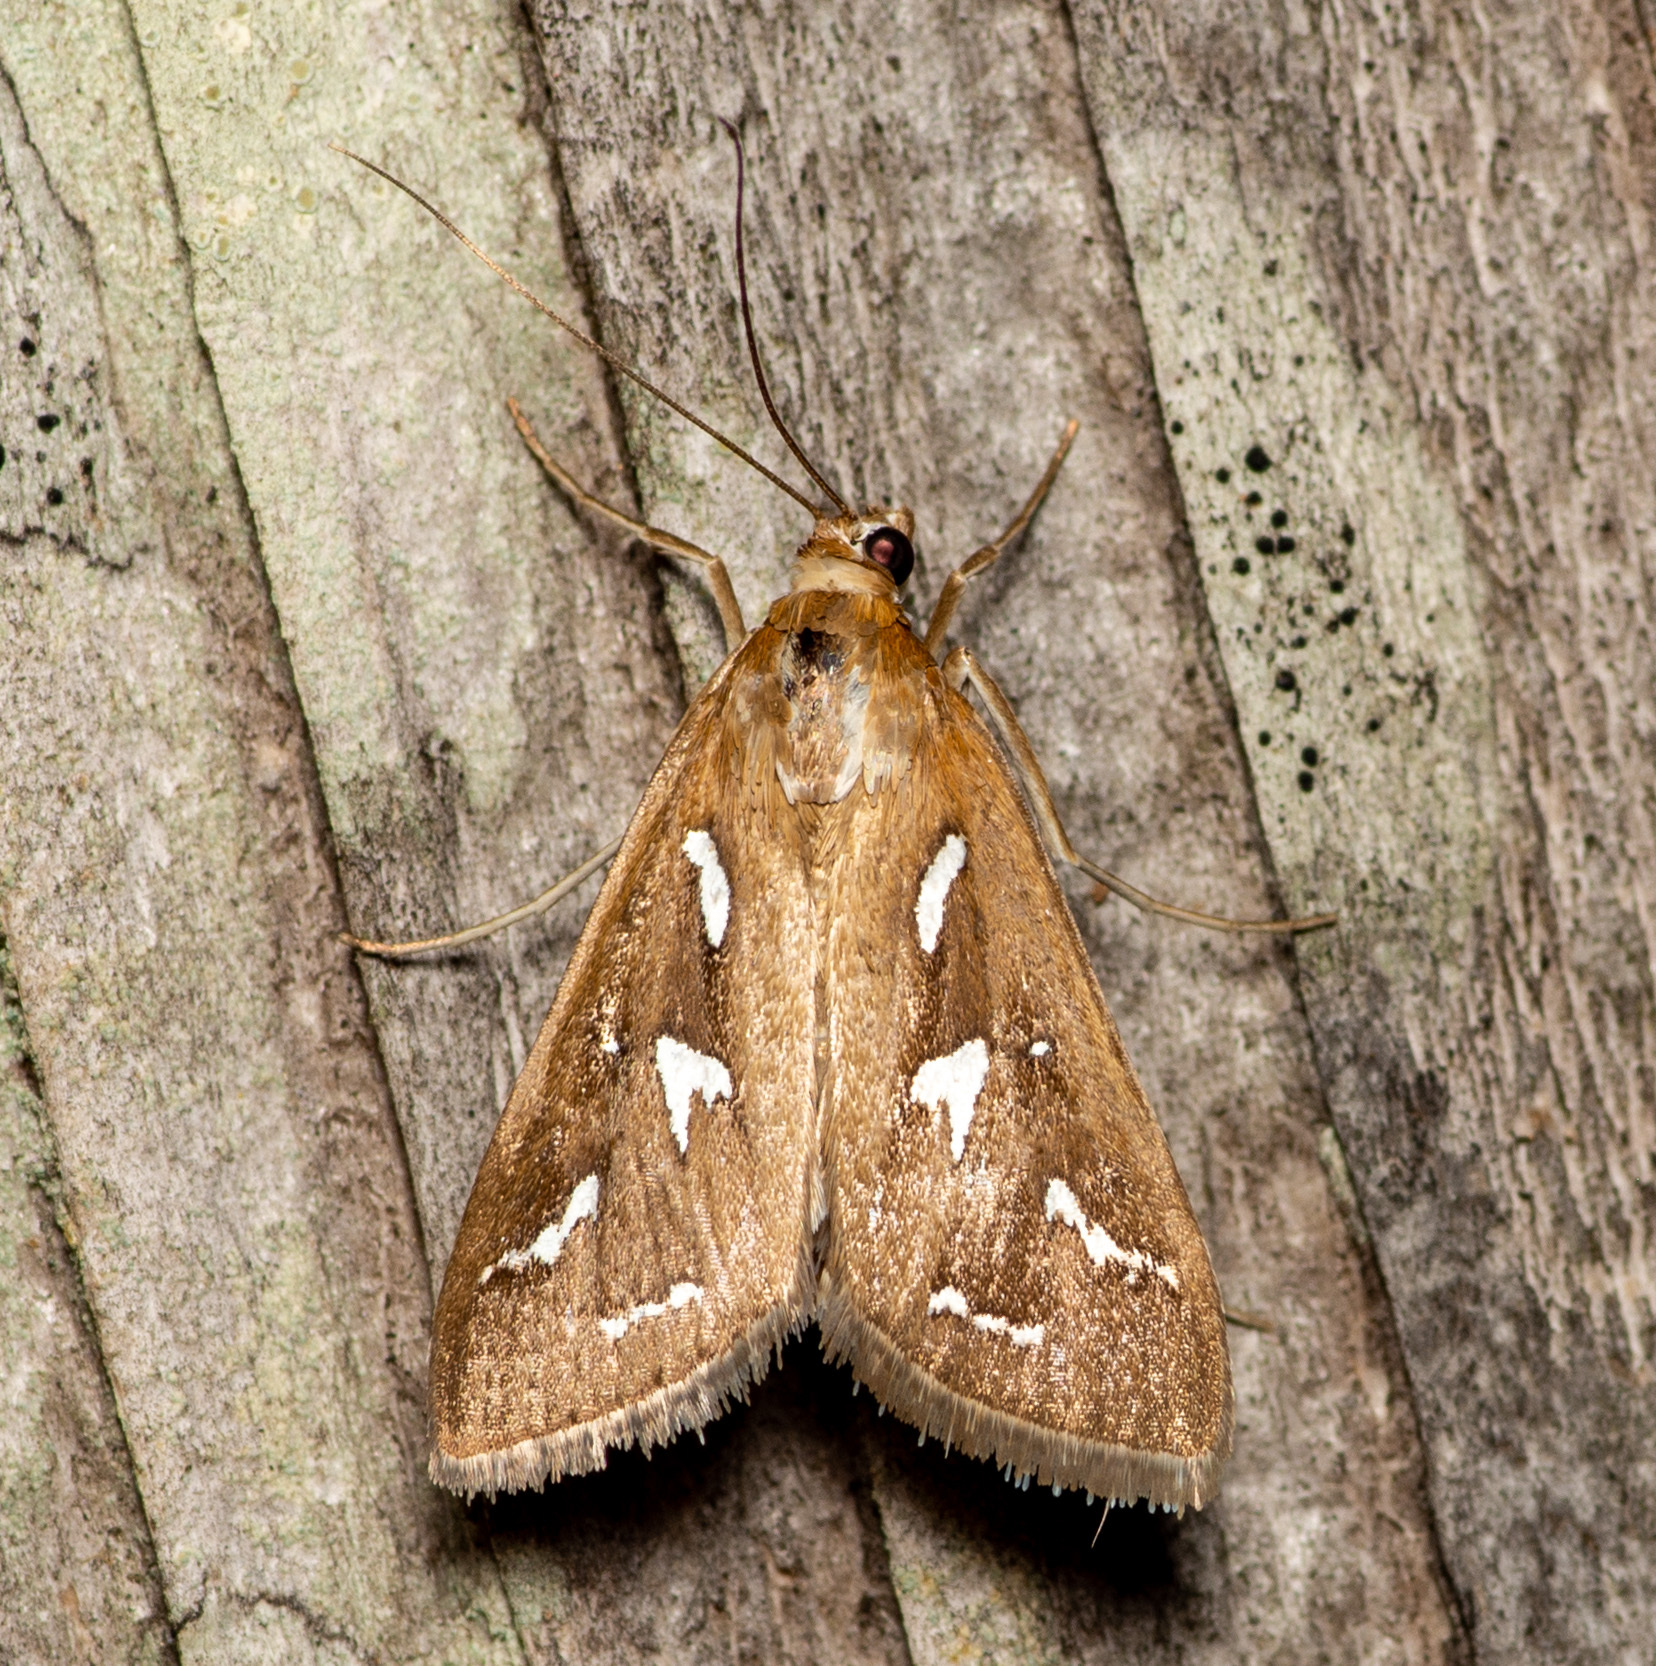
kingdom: Animalia
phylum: Arthropoda
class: Insecta
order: Lepidoptera
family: Crambidae
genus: Diastictis
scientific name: Diastictis fracturalis
